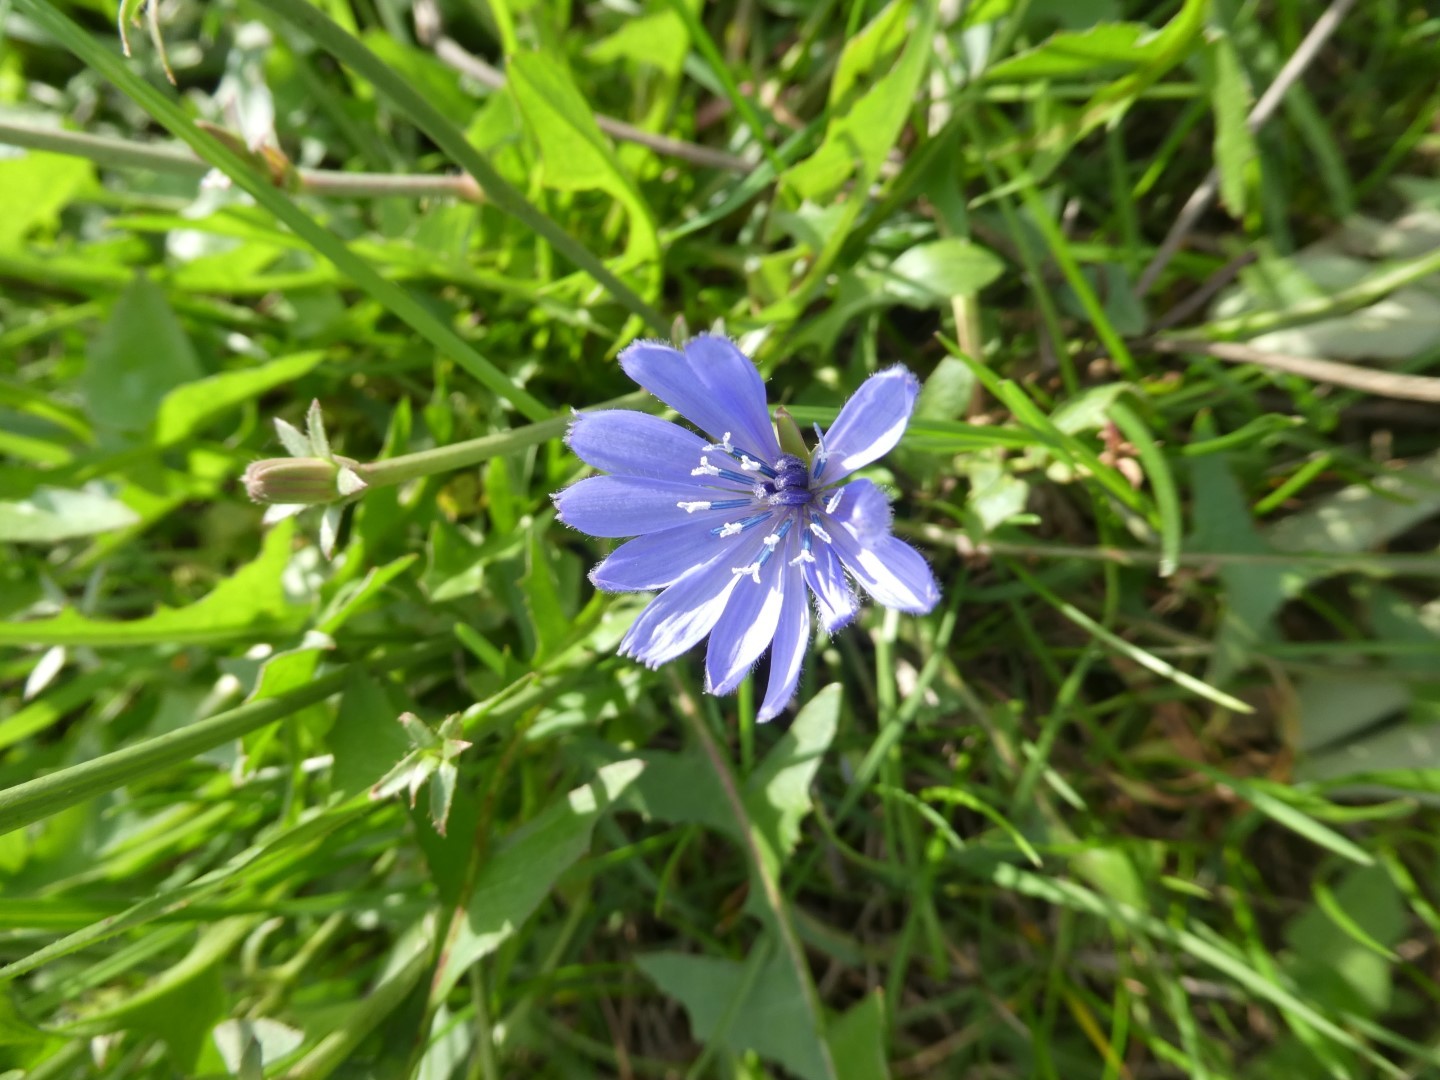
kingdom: Plantae
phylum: Tracheophyta
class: Magnoliopsida
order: Asterales
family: Asteraceae
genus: Cichorium
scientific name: Cichorium intybus
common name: Chicory
